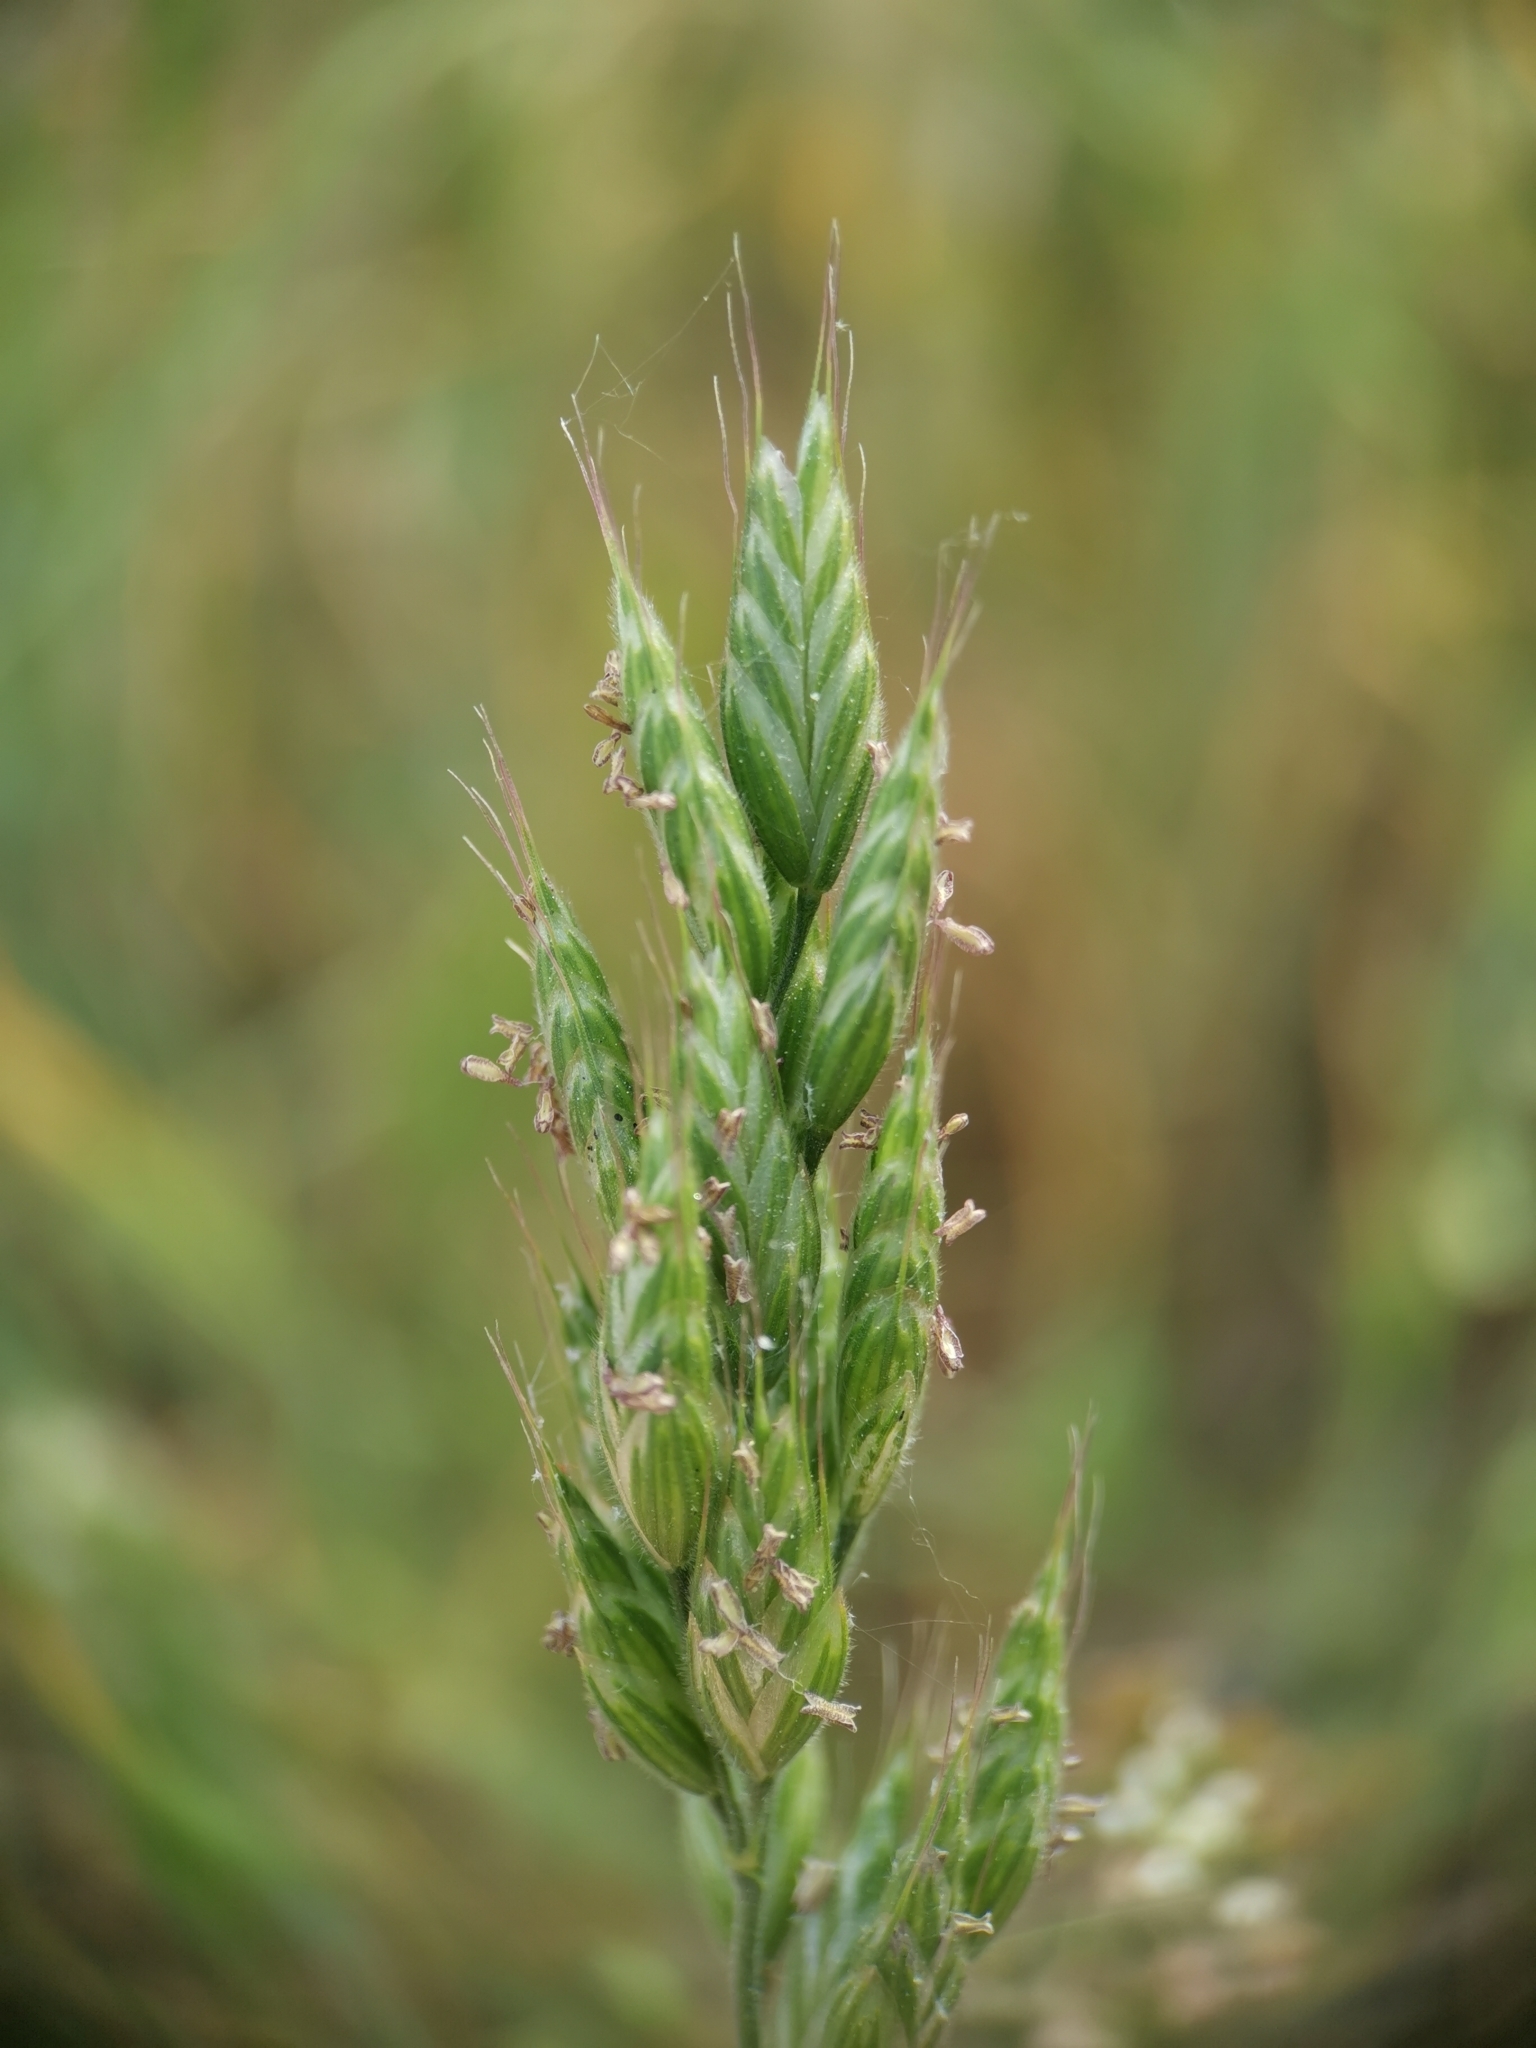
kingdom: Plantae
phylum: Tracheophyta
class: Liliopsida
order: Poales
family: Poaceae
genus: Bromus
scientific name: Bromus hordeaceus
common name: Soft brome
